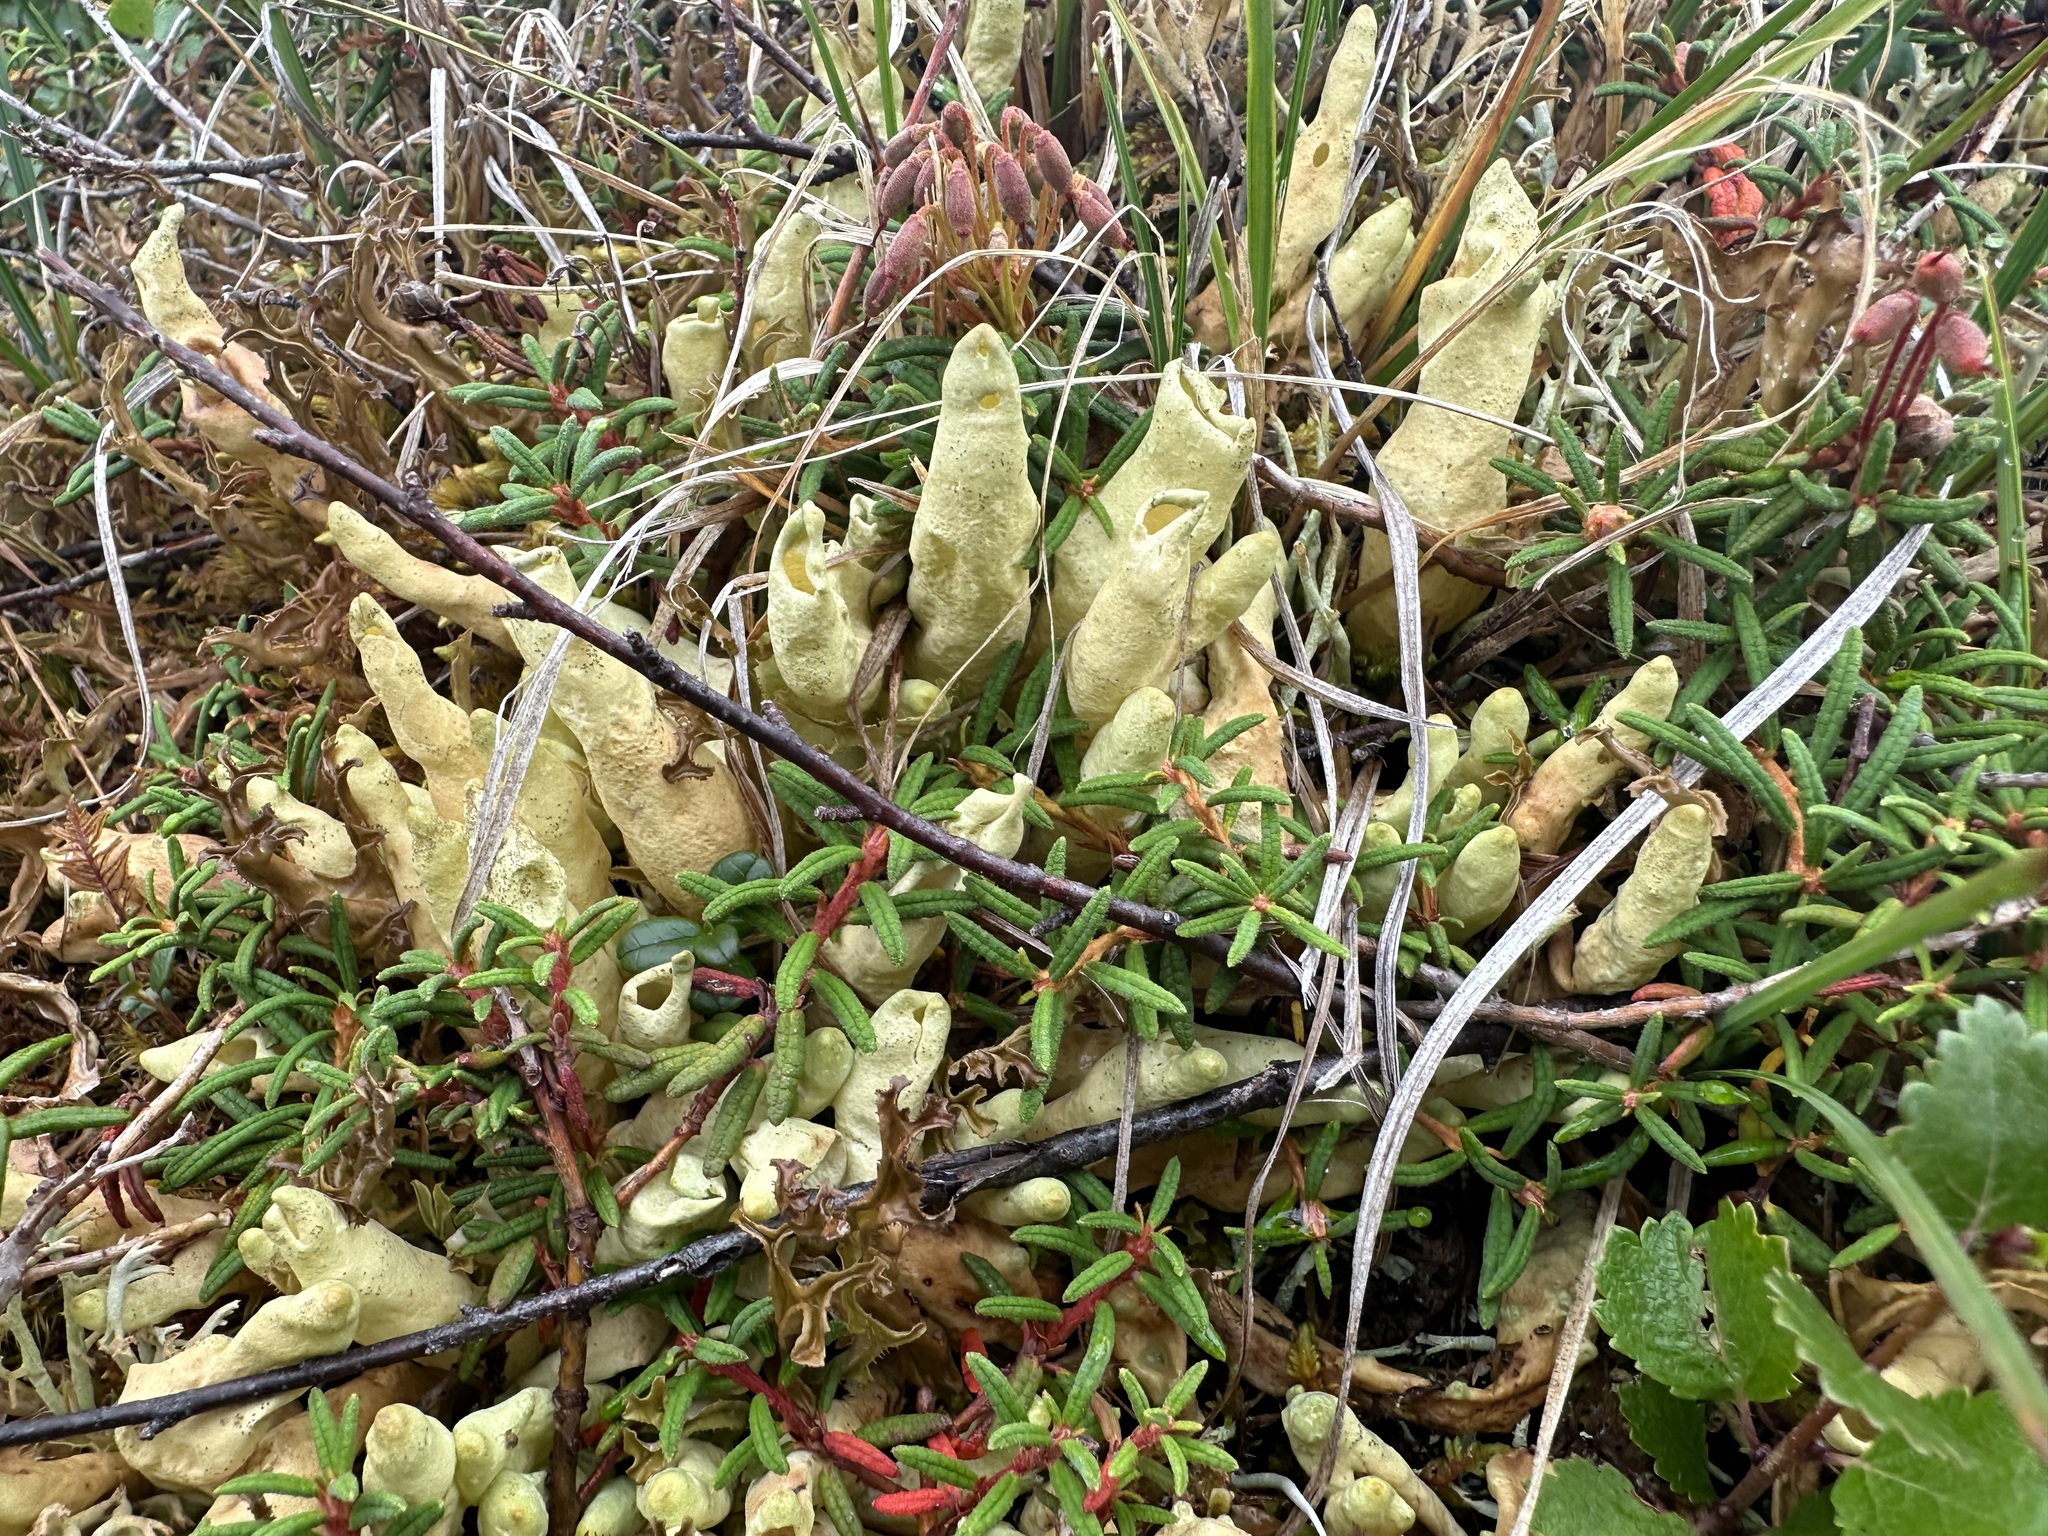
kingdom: Fungi
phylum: Ascomycota
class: Lecanoromycetes
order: Lecanorales
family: Parmeliaceae
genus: Dactylina
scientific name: Dactylina arctica
